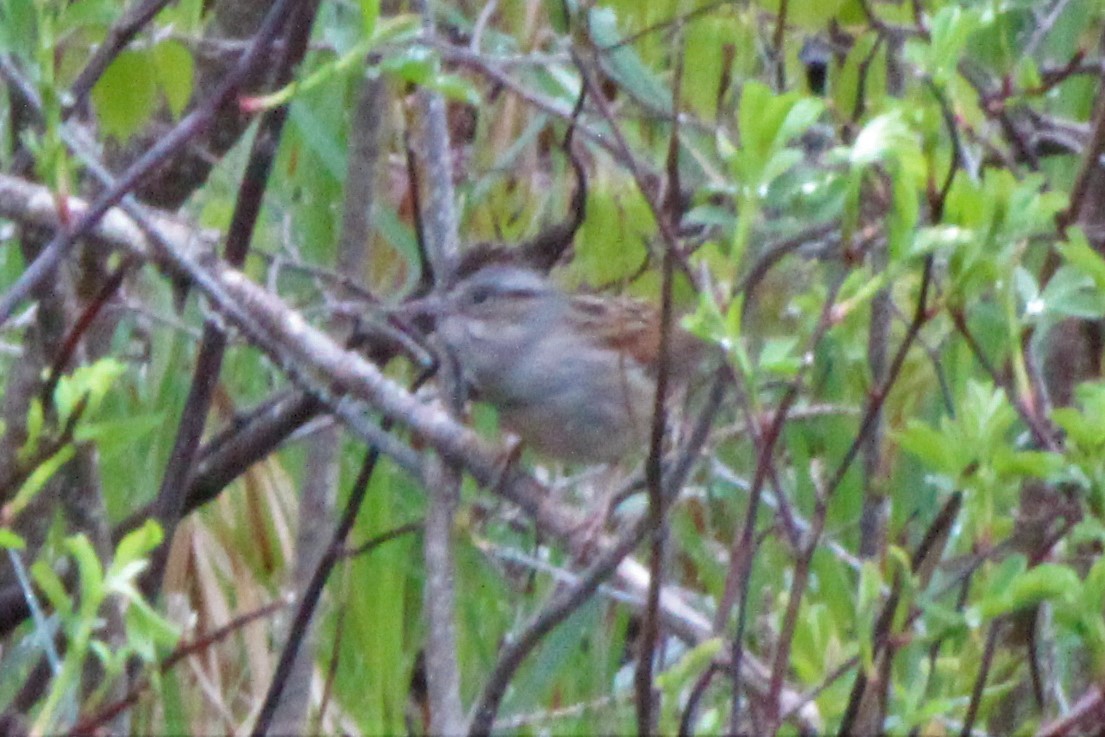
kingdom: Animalia
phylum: Chordata
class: Aves
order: Passeriformes
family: Passerellidae
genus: Melospiza
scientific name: Melospiza georgiana
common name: Swamp sparrow
